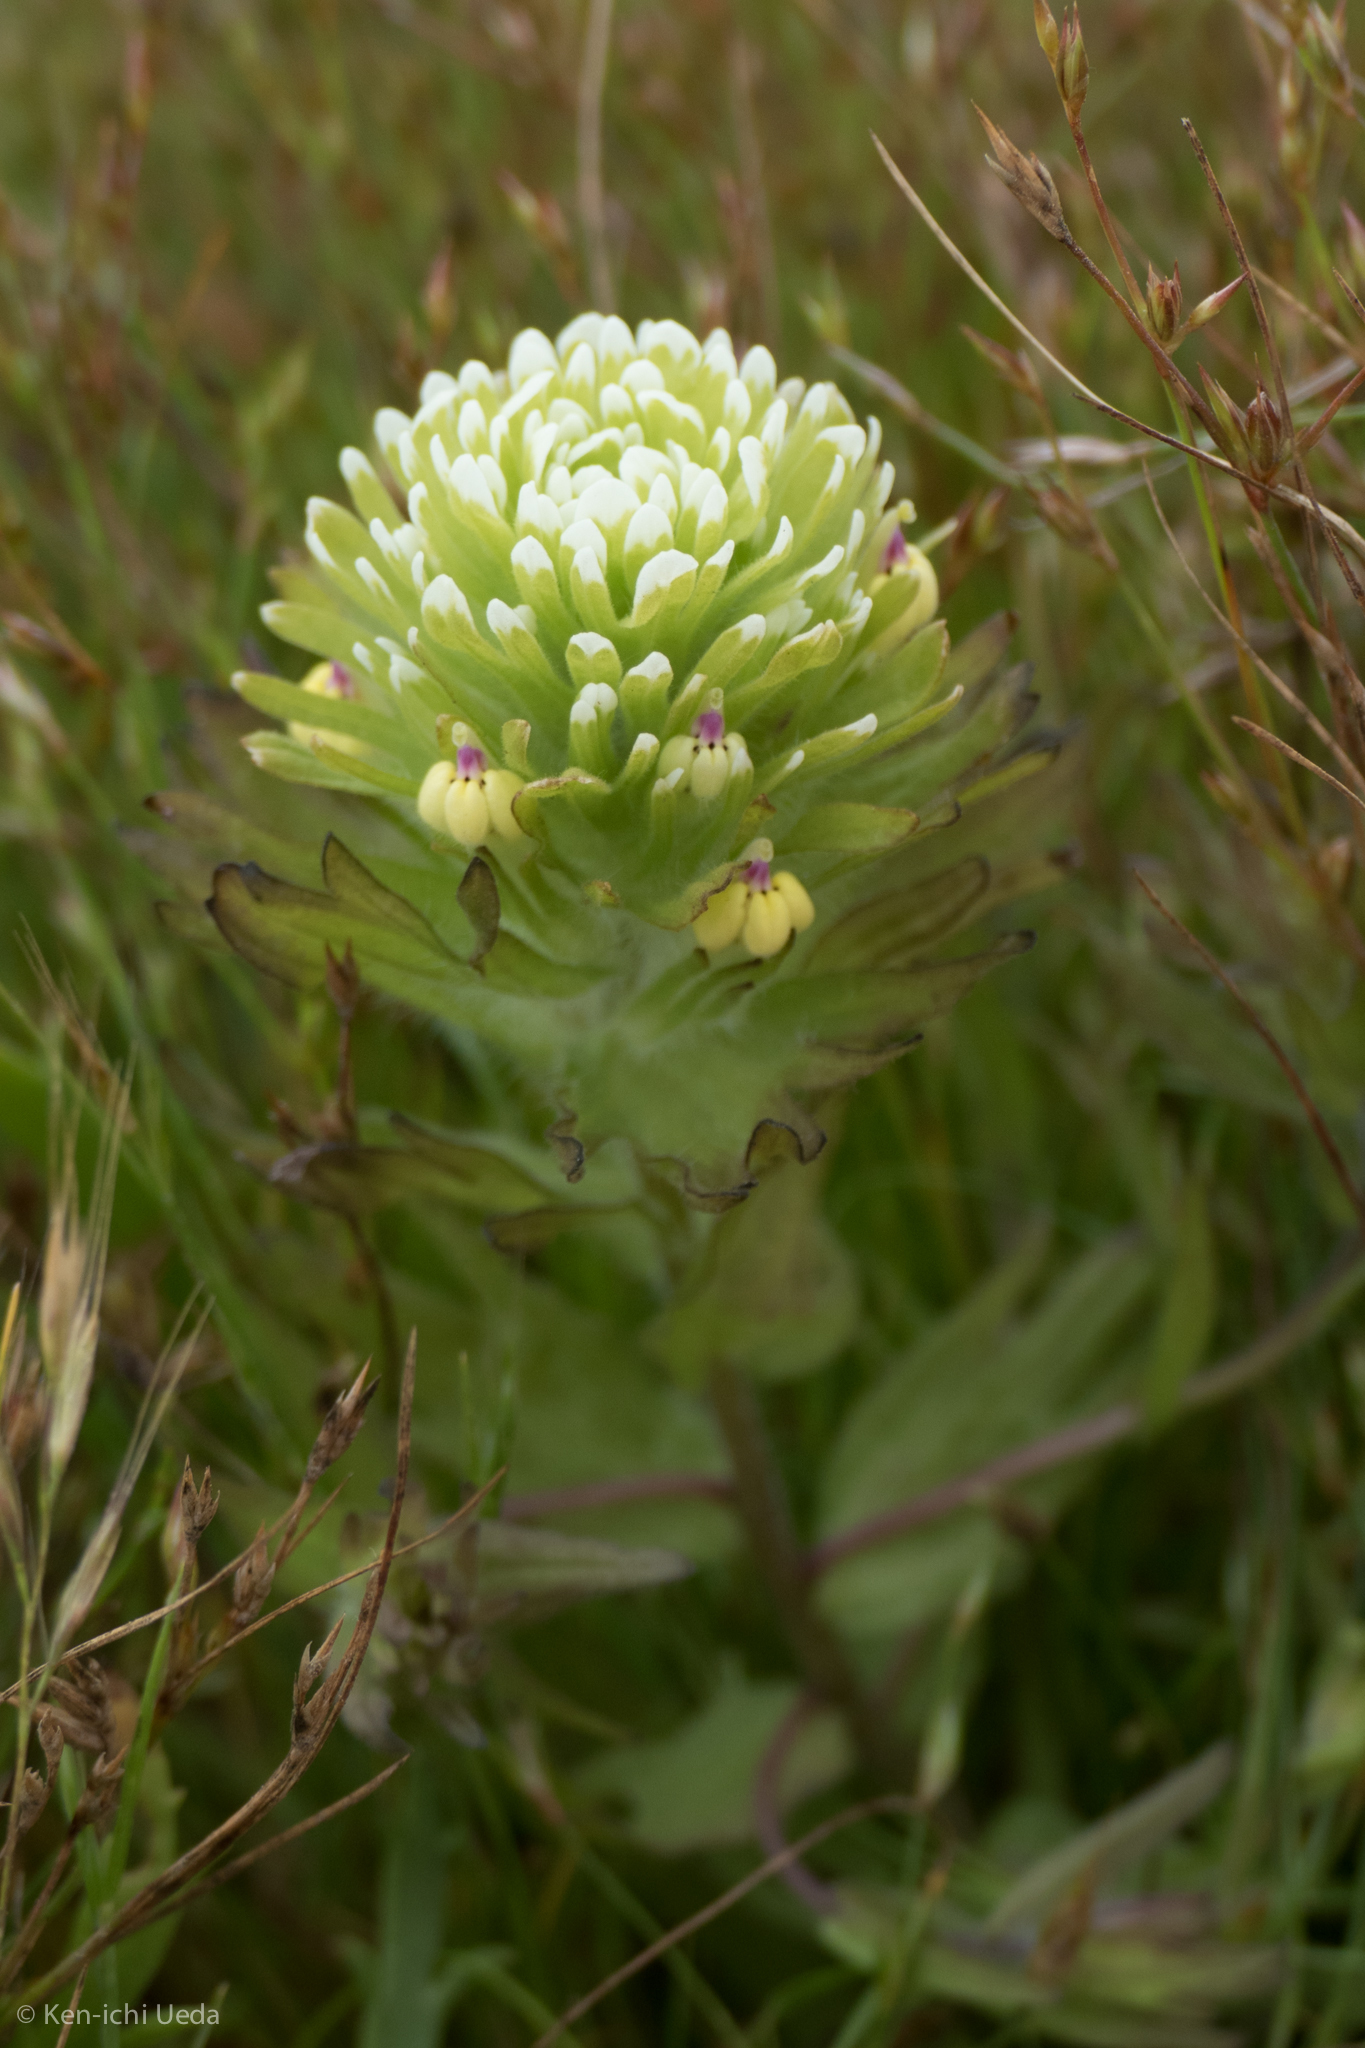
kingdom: Plantae
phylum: Tracheophyta
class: Magnoliopsida
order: Lamiales
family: Orobanchaceae
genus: Castilleja
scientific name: Castilleja ambigua
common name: Johnny-nip
